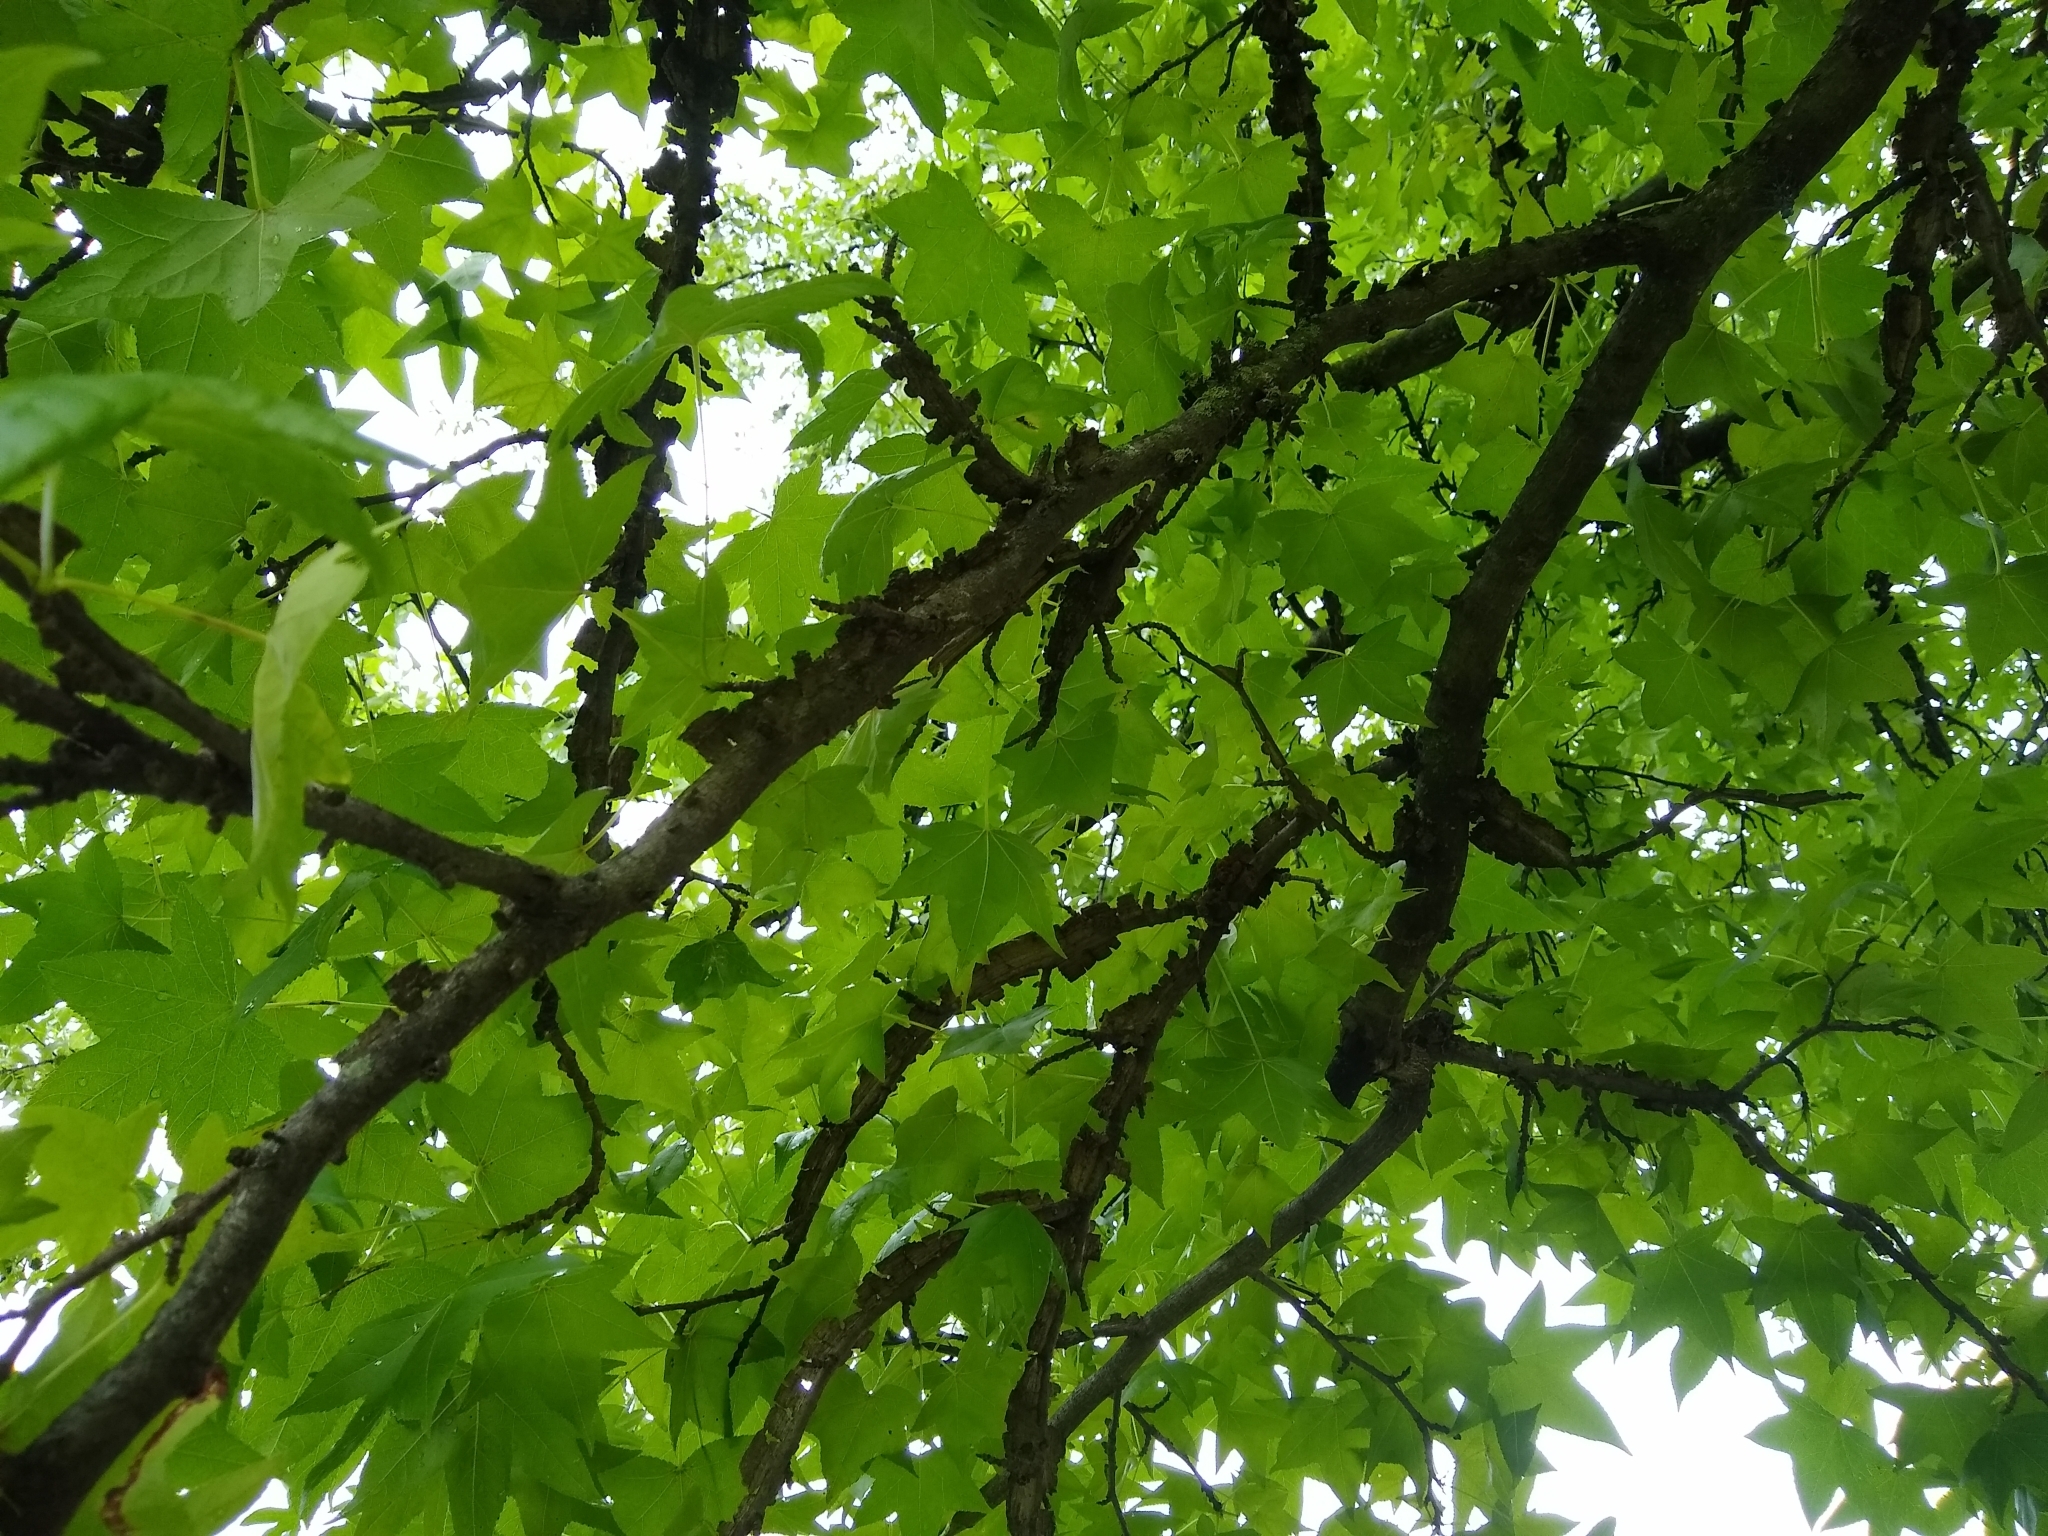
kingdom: Plantae
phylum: Tracheophyta
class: Magnoliopsida
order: Saxifragales
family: Altingiaceae
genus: Liquidambar
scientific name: Liquidambar styraciflua
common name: Sweet gum
